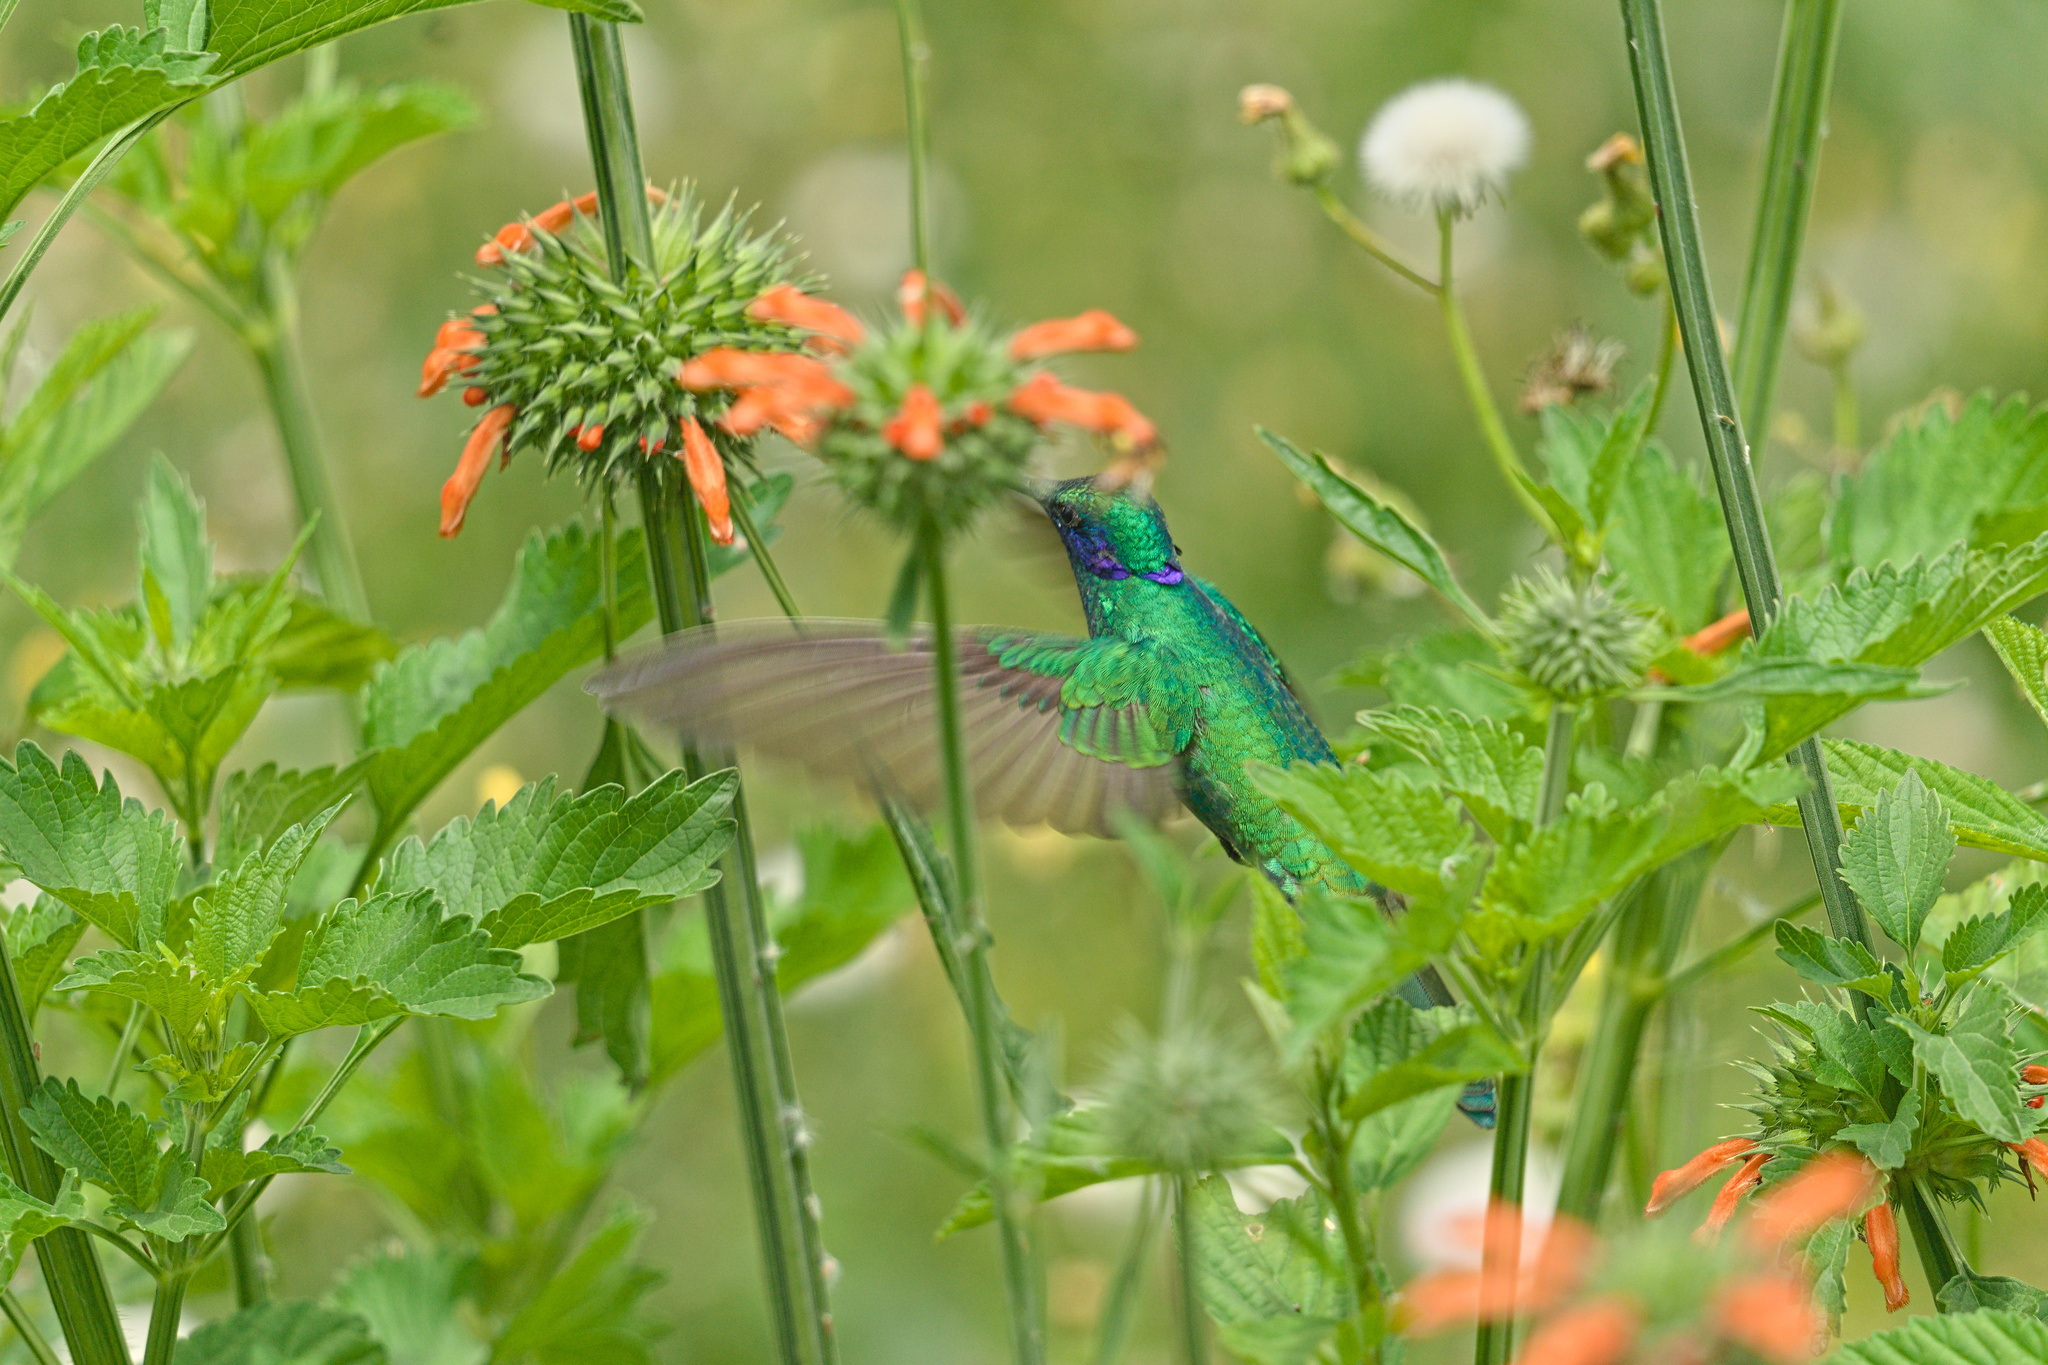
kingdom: Animalia
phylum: Chordata
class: Aves
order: Apodiformes
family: Trochilidae
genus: Colibri
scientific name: Colibri coruscans
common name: Sparkling violetear
